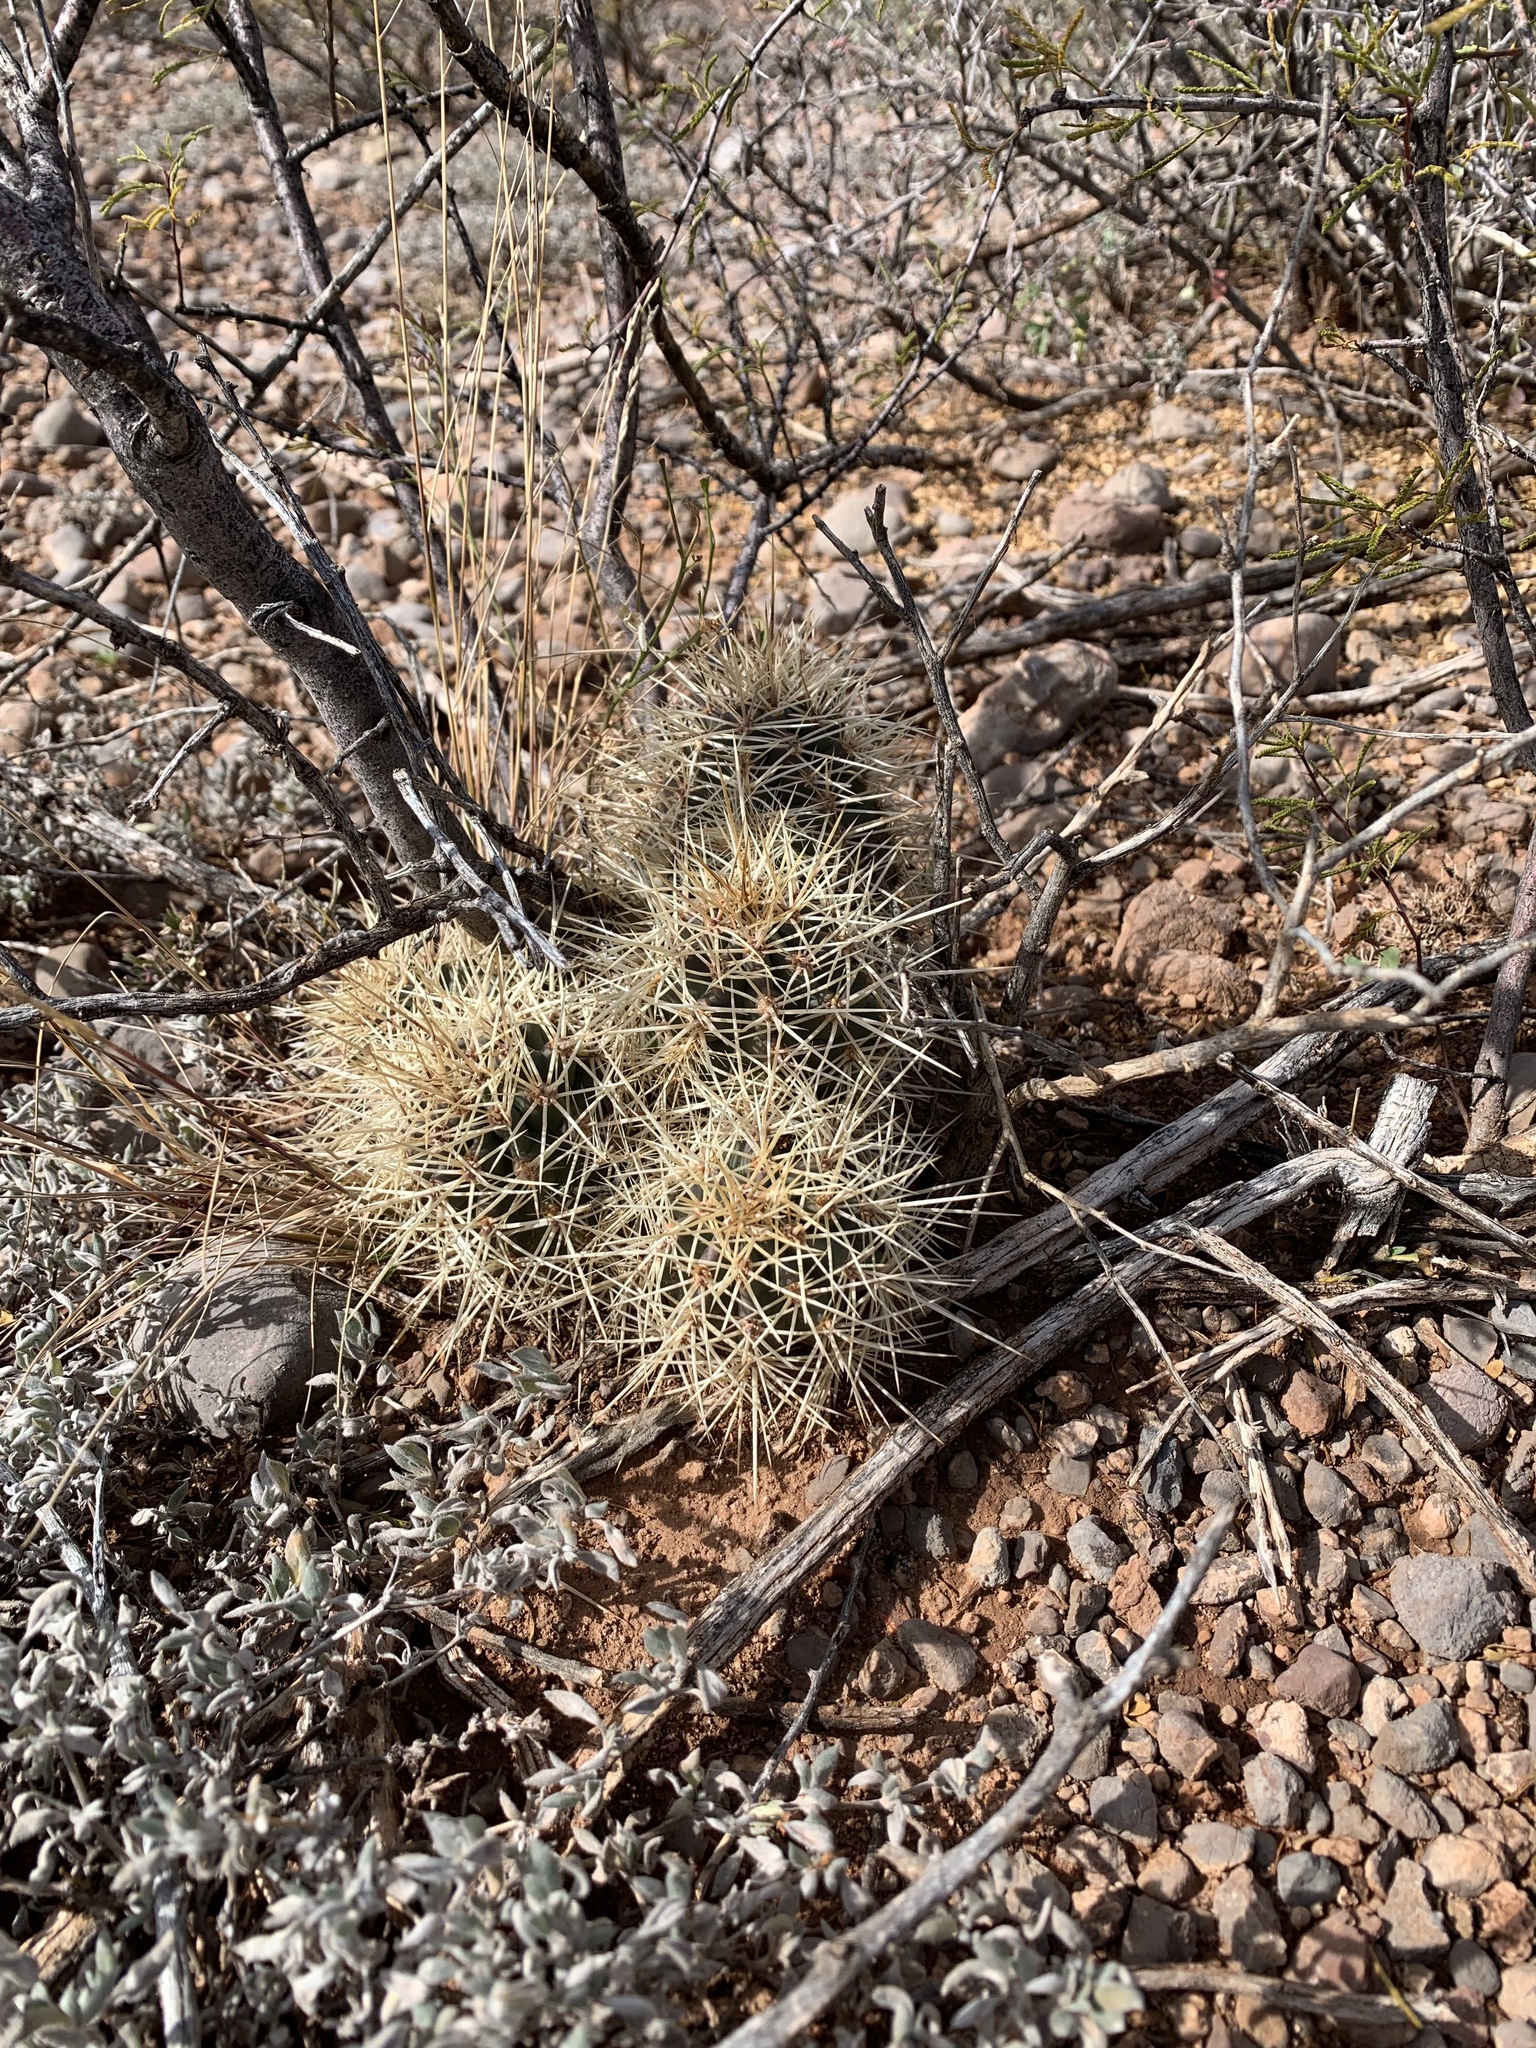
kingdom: Plantae
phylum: Tracheophyta
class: Magnoliopsida
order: Caryophyllales
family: Cactaceae
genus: Echinocereus
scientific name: Echinocereus coccineus
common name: Scarlet hedgehog cactus
